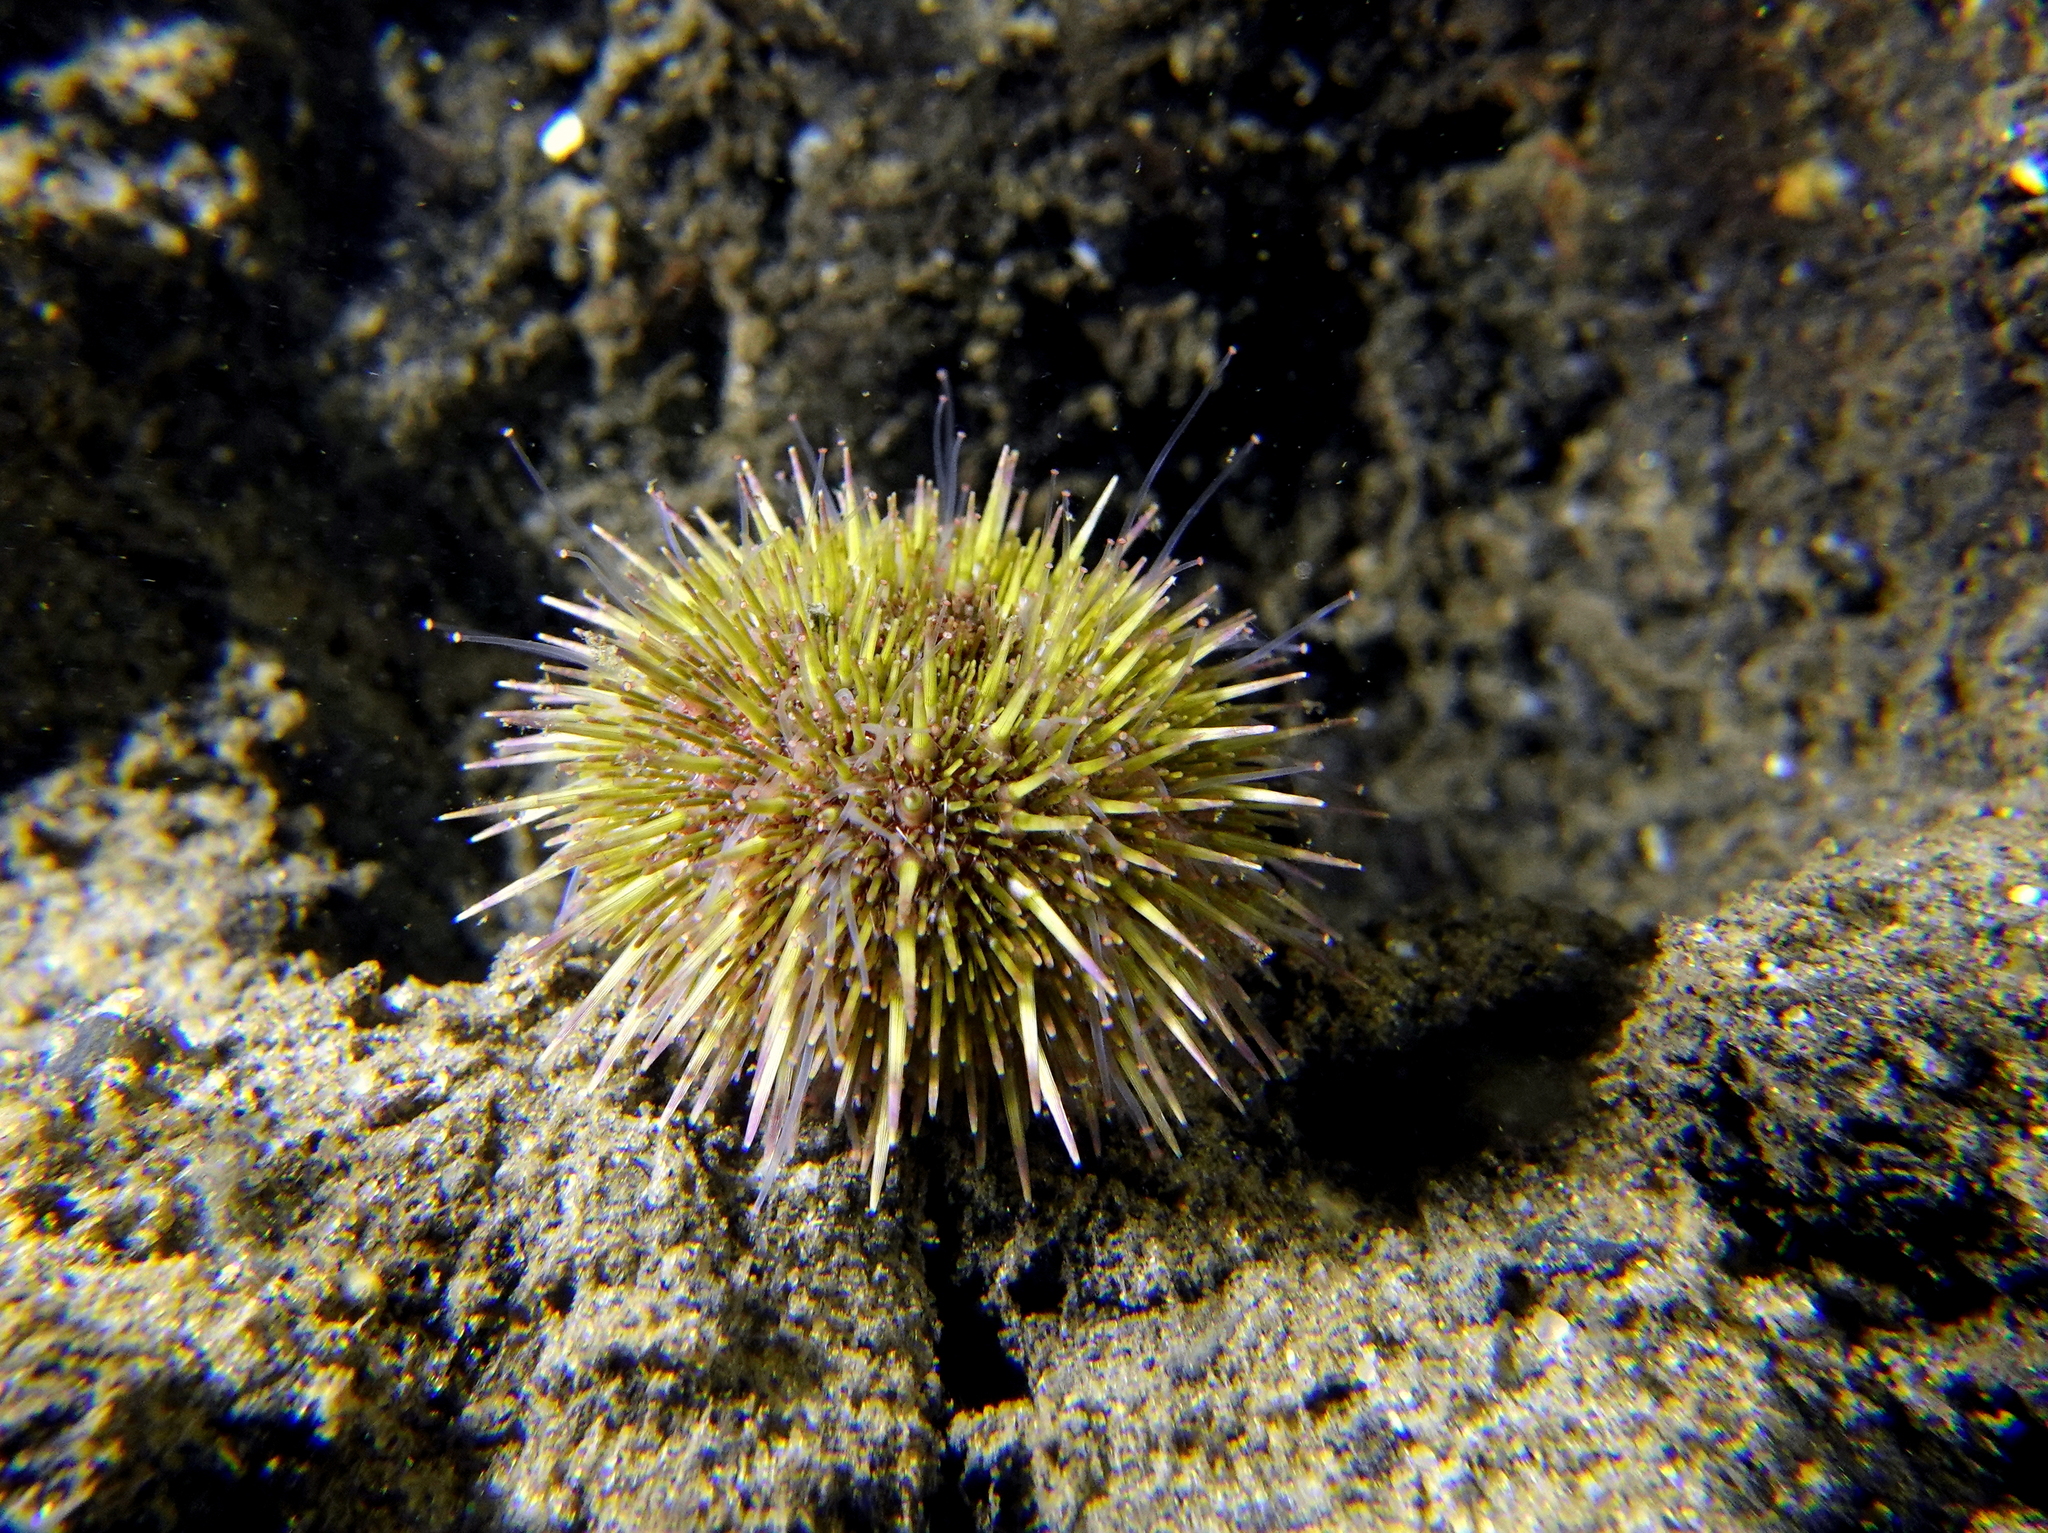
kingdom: Animalia
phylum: Echinodermata
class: Echinoidea
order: Camarodonta
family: Parechinidae
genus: Psammechinus
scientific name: Psammechinus miliaris
